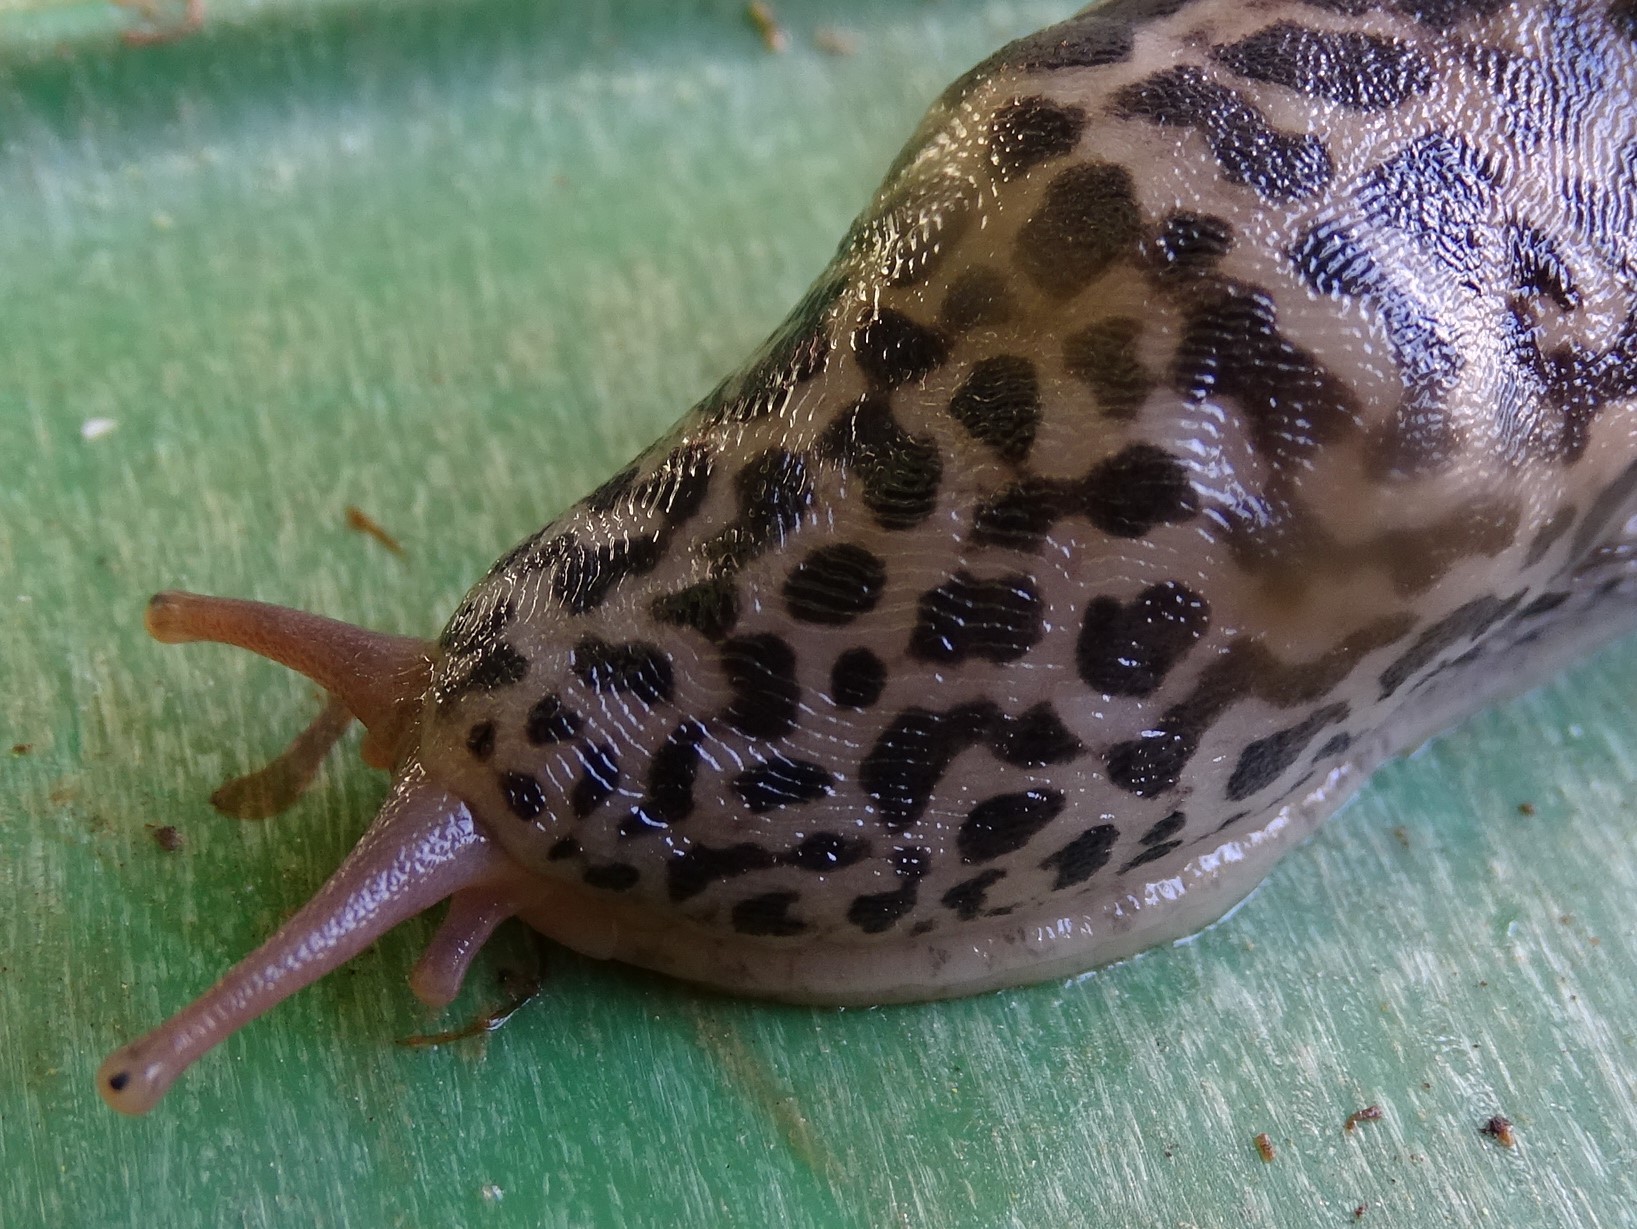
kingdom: Animalia
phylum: Mollusca
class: Gastropoda
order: Stylommatophora
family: Limacidae
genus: Limax
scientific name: Limax maximus
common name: Great grey slug
